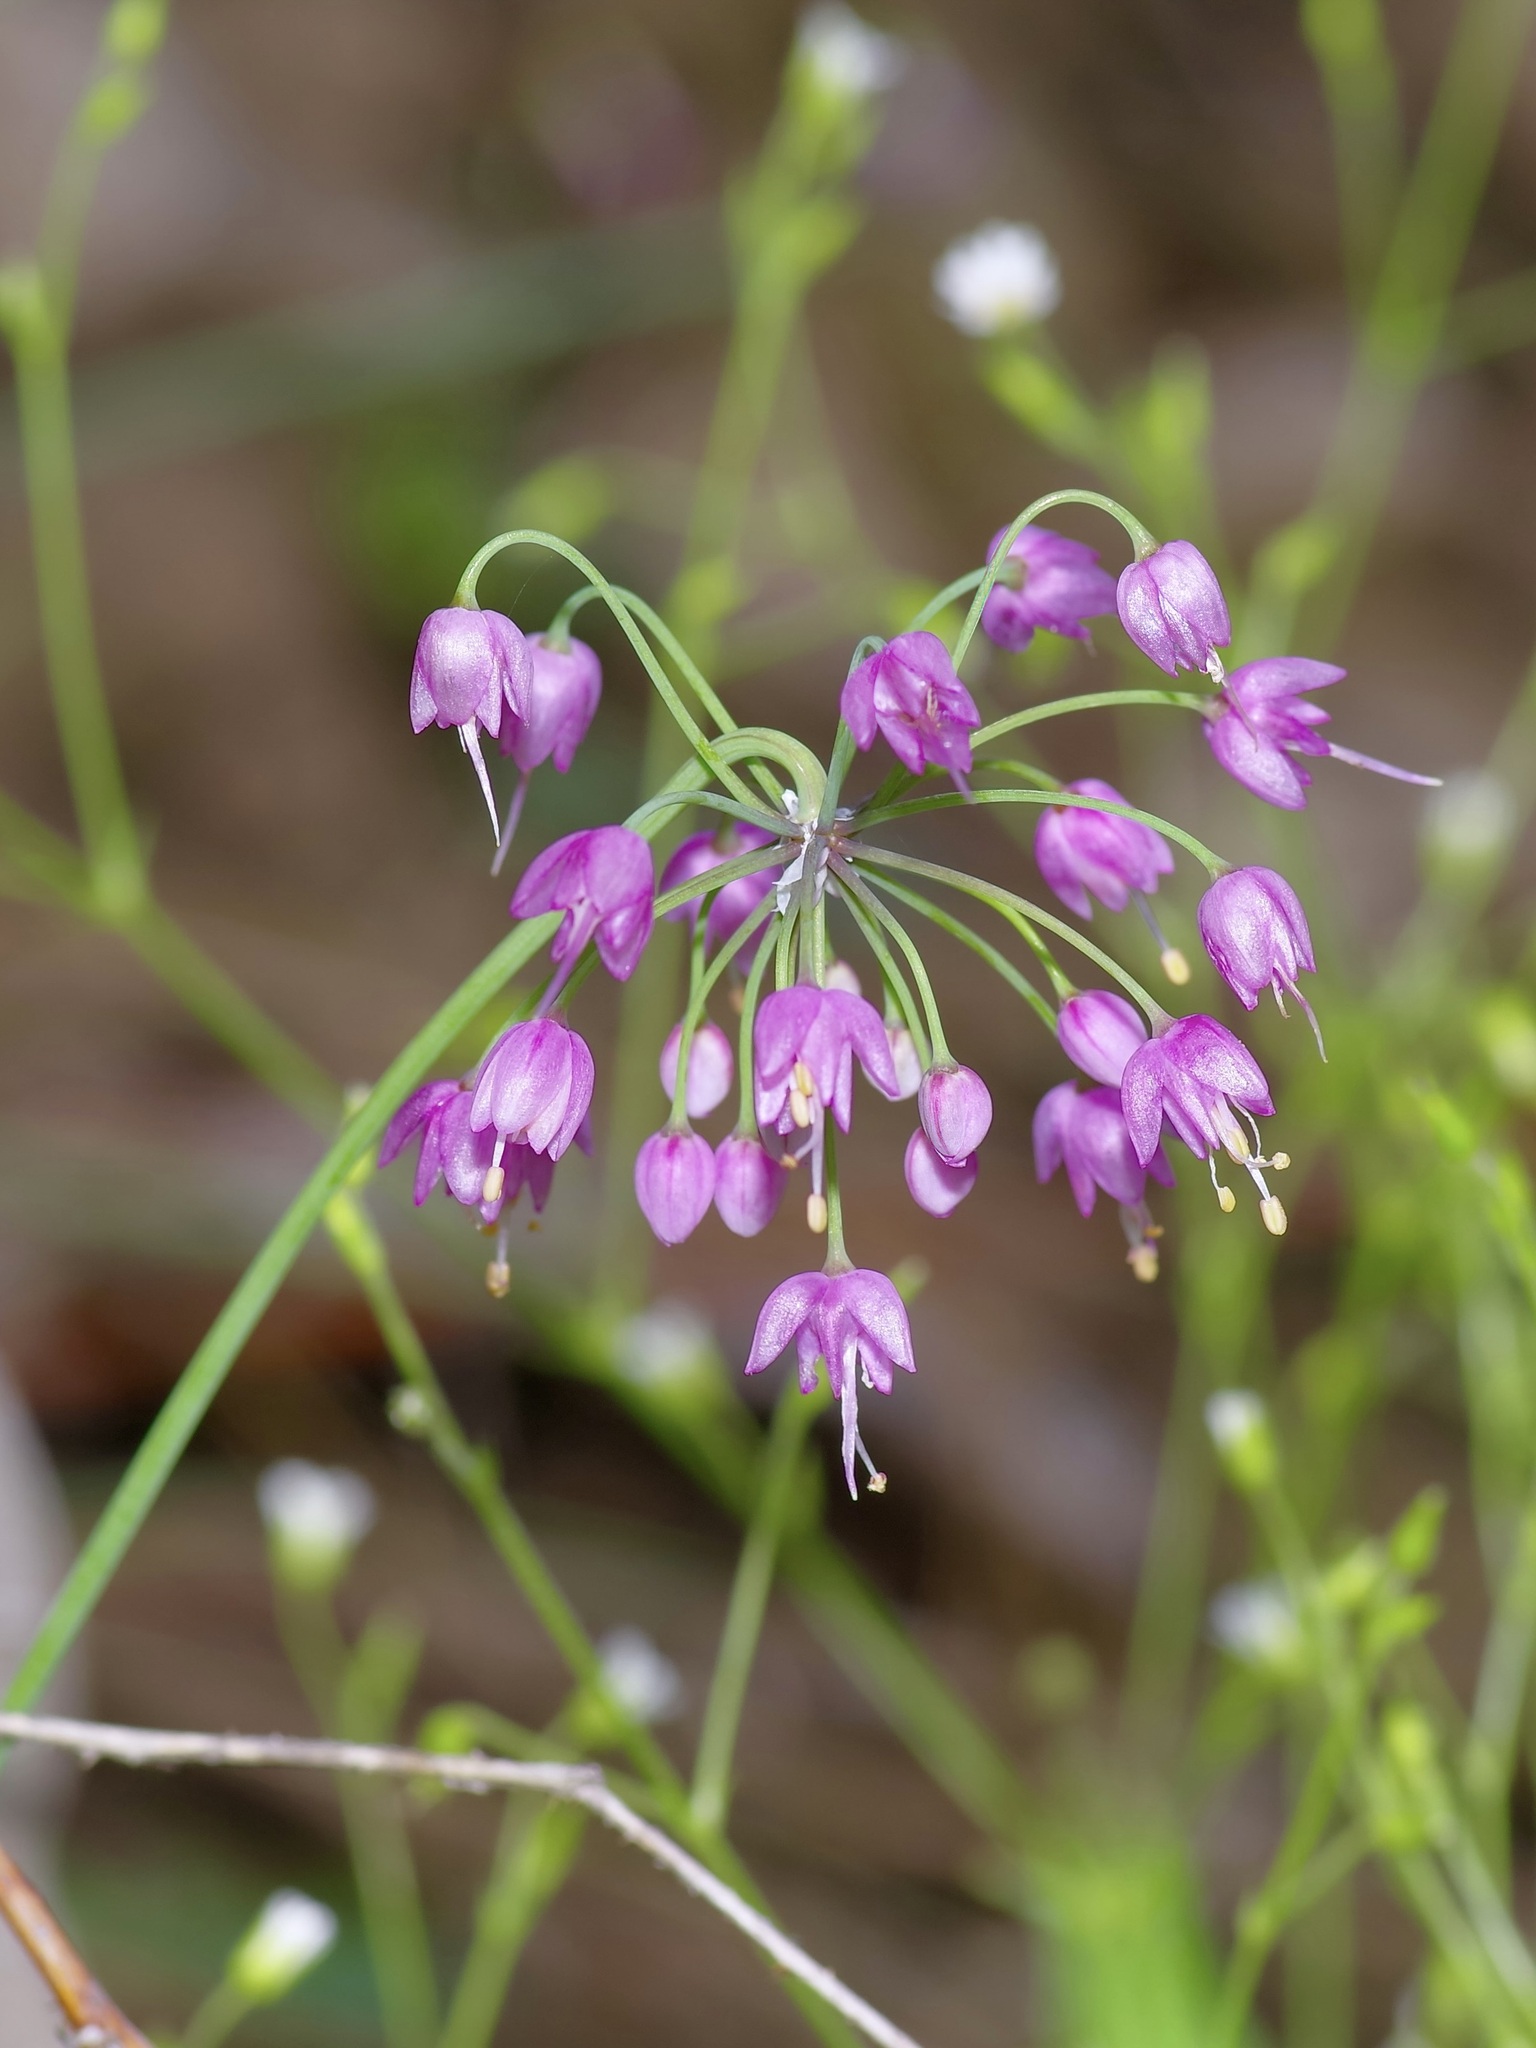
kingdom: Plantae
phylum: Tracheophyta
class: Liliopsida
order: Asparagales
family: Amaryllidaceae
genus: Allium
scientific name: Allium cernuum
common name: Nodding onion
